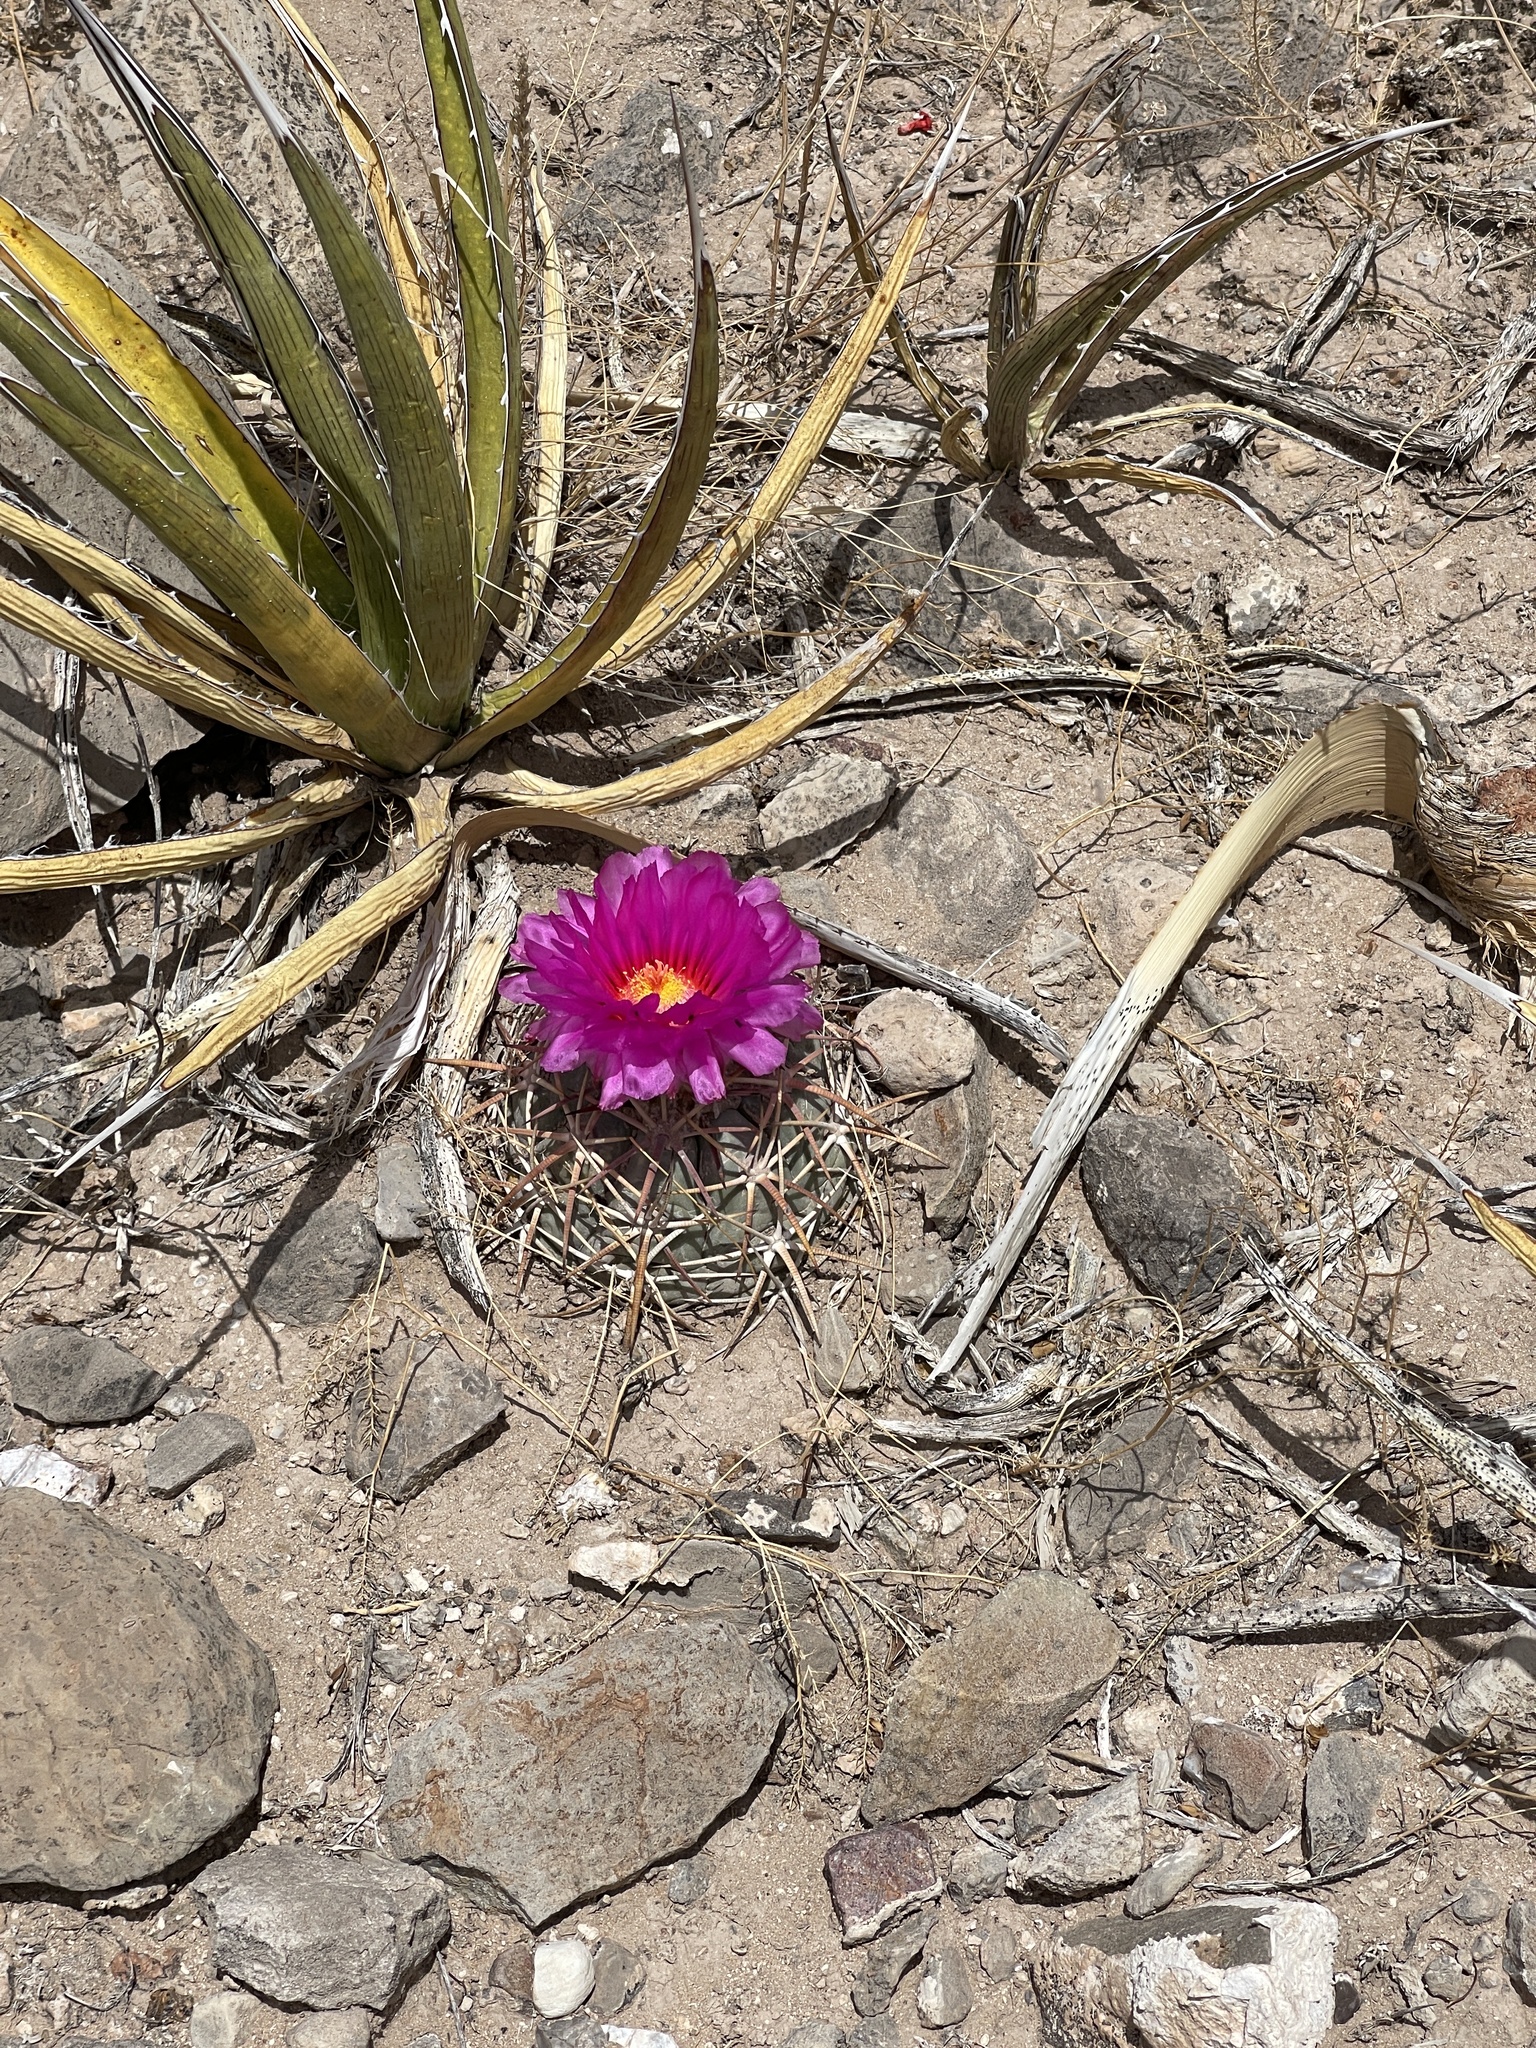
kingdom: Plantae
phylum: Tracheophyta
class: Magnoliopsida
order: Caryophyllales
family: Cactaceae
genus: Echinocactus
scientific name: Echinocactus horizonthalonius
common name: Devilshead
